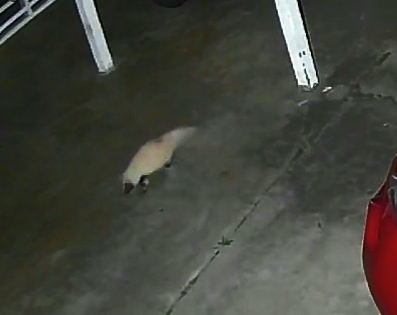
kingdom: Animalia
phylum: Chordata
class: Mammalia
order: Carnivora
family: Mephitidae
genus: Mephitis
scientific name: Mephitis mephitis
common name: Striped skunk
